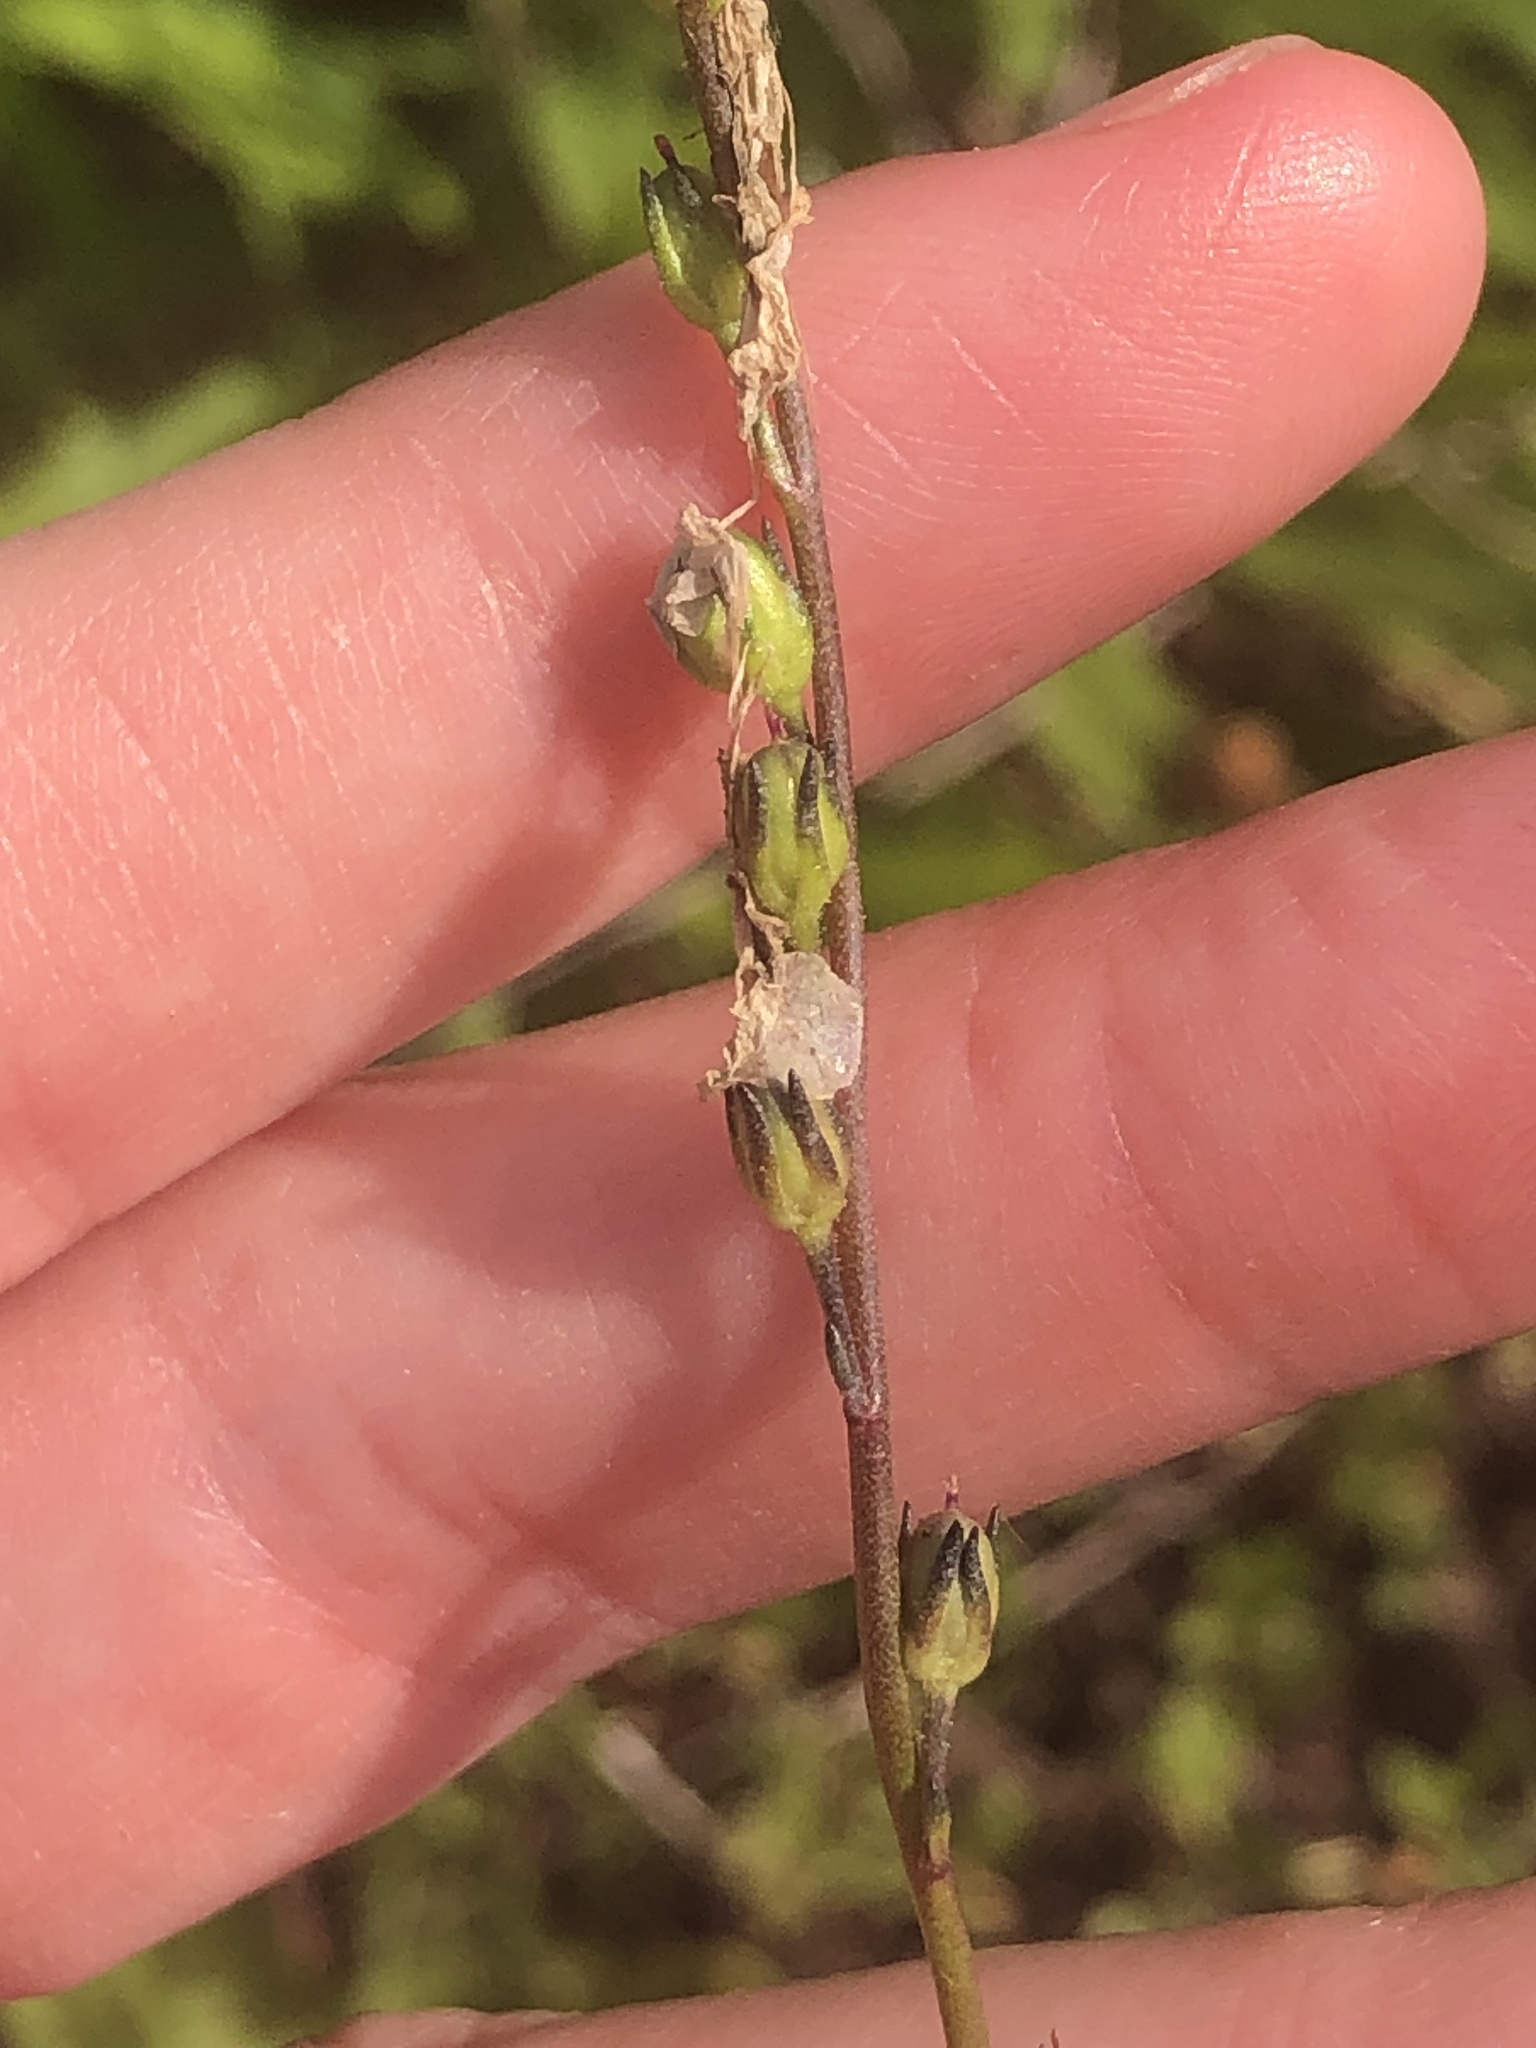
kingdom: Plantae
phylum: Tracheophyta
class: Magnoliopsida
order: Lamiales
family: Plantaginaceae
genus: Nuttallanthus
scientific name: Nuttallanthus canadensis
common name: Blue toadflax
